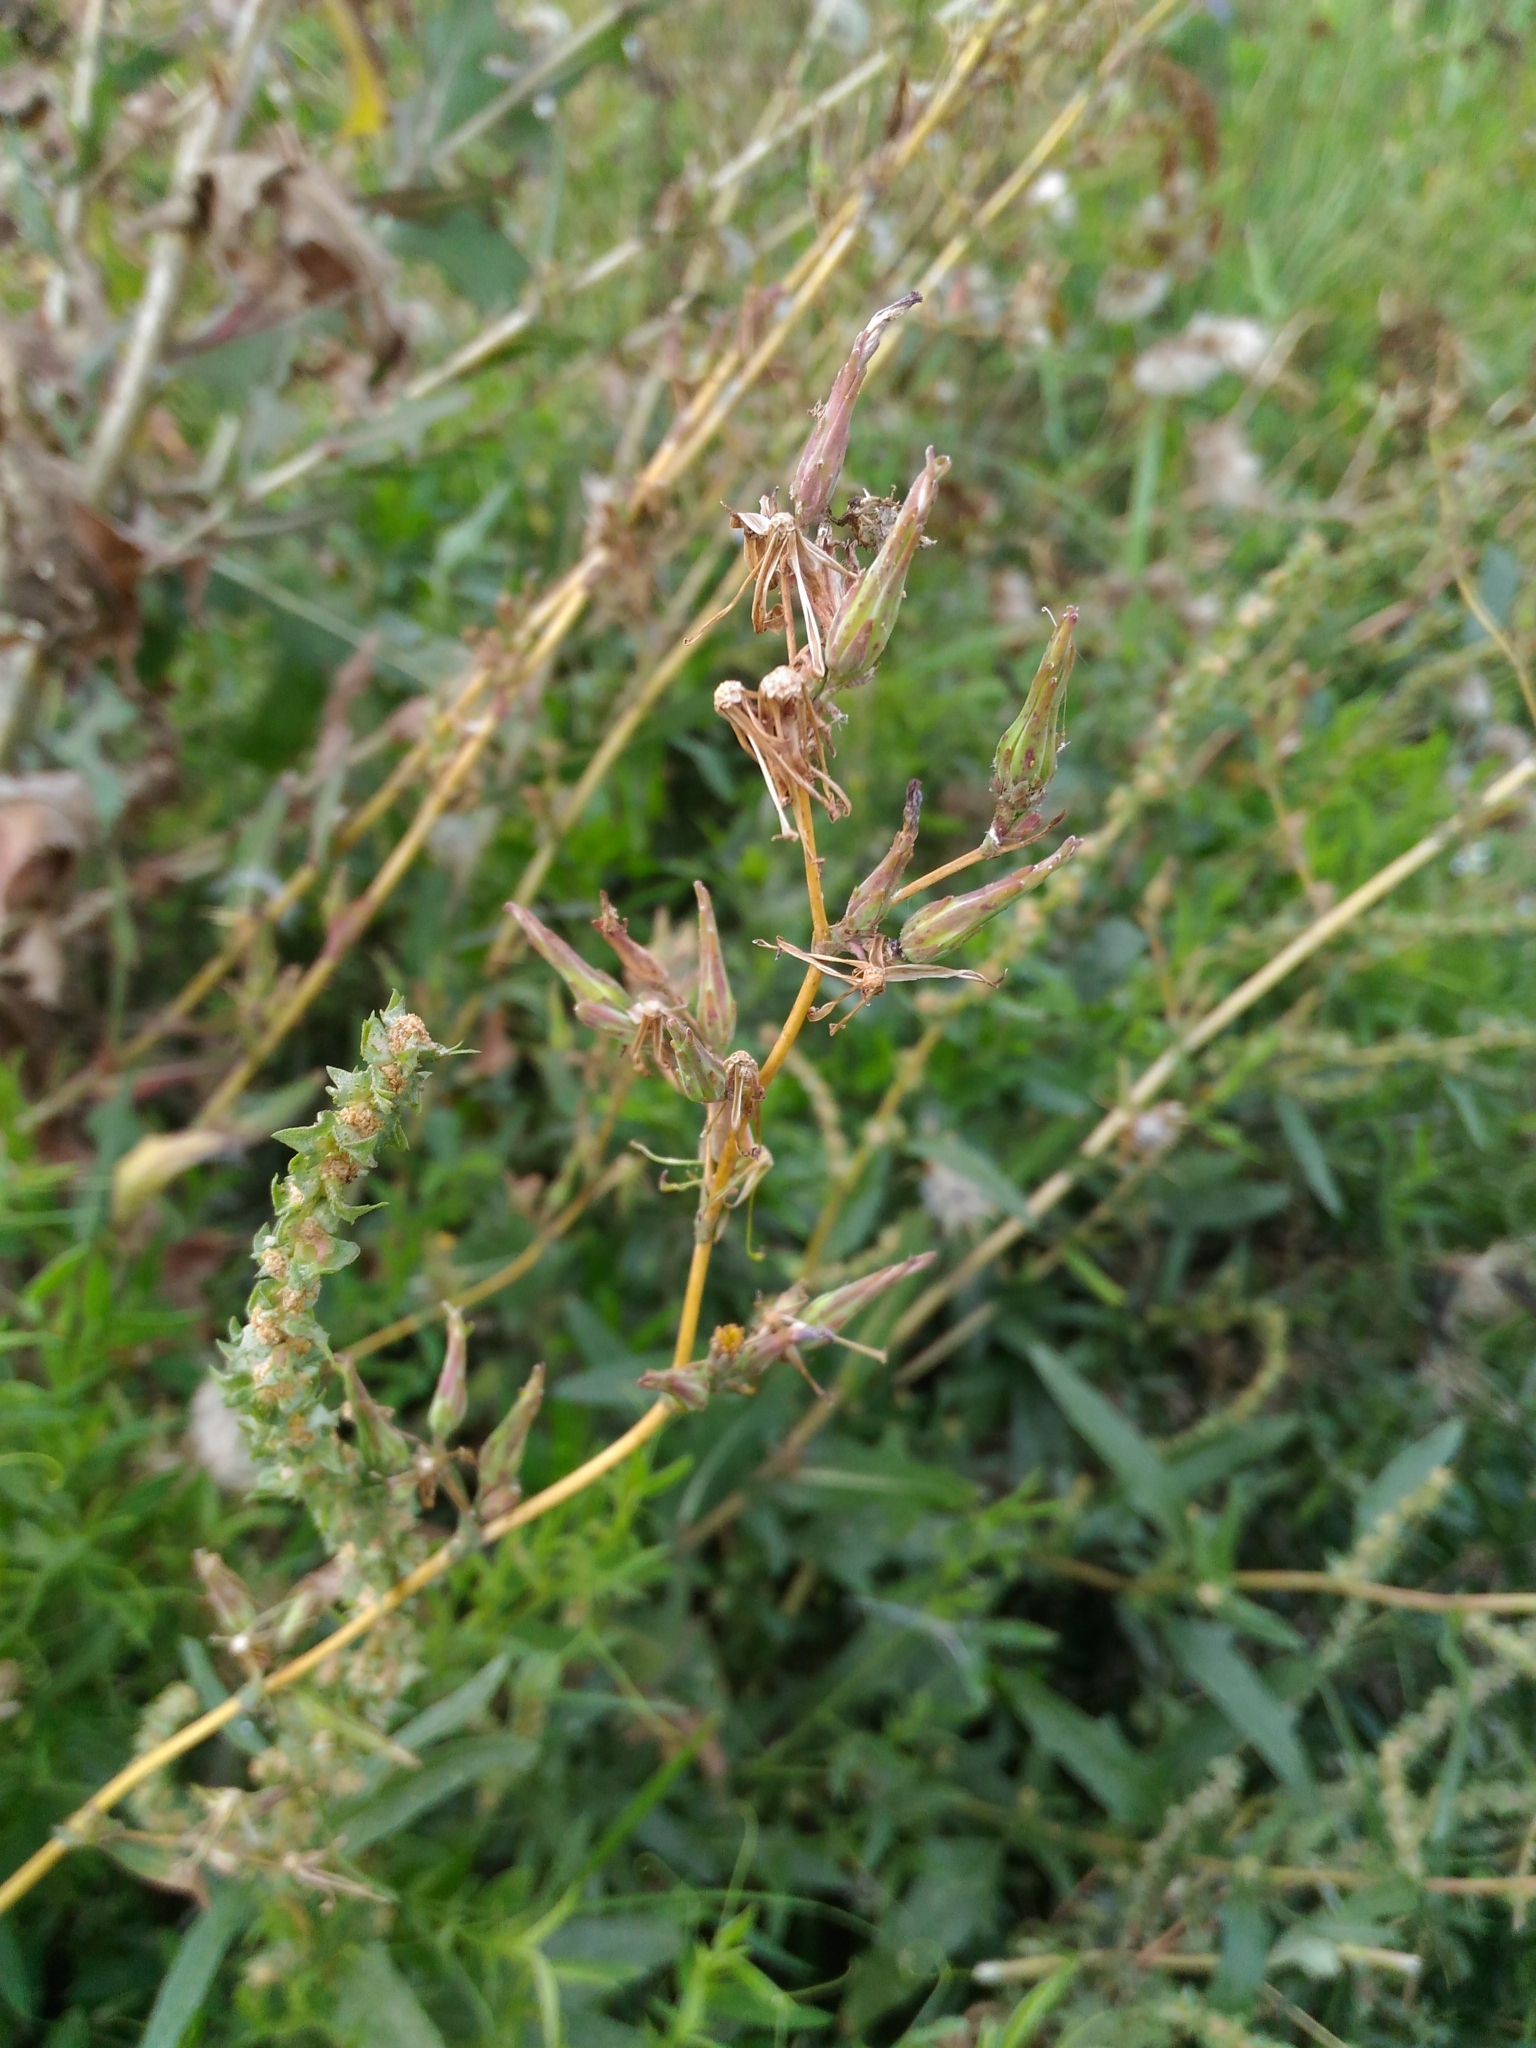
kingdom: Plantae
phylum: Tracheophyta
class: Magnoliopsida
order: Asterales
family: Asteraceae
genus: Lactuca
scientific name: Lactuca serriola
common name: Prickly lettuce
